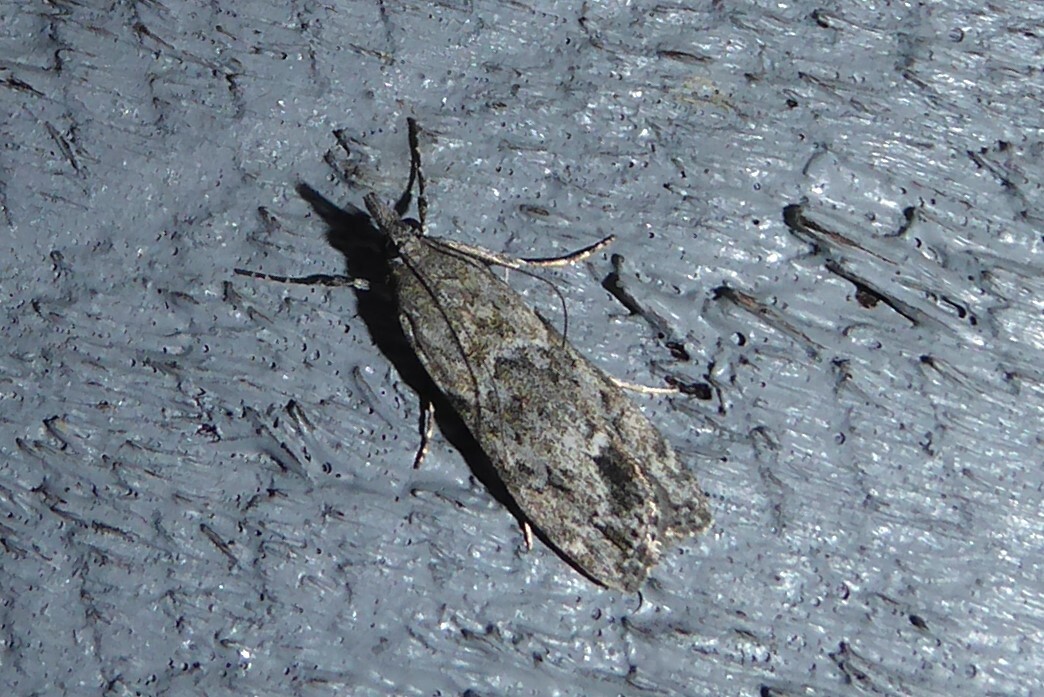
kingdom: Animalia
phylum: Arthropoda
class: Insecta
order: Lepidoptera
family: Crambidae
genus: Eudonia
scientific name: Eudonia rakaiensis
